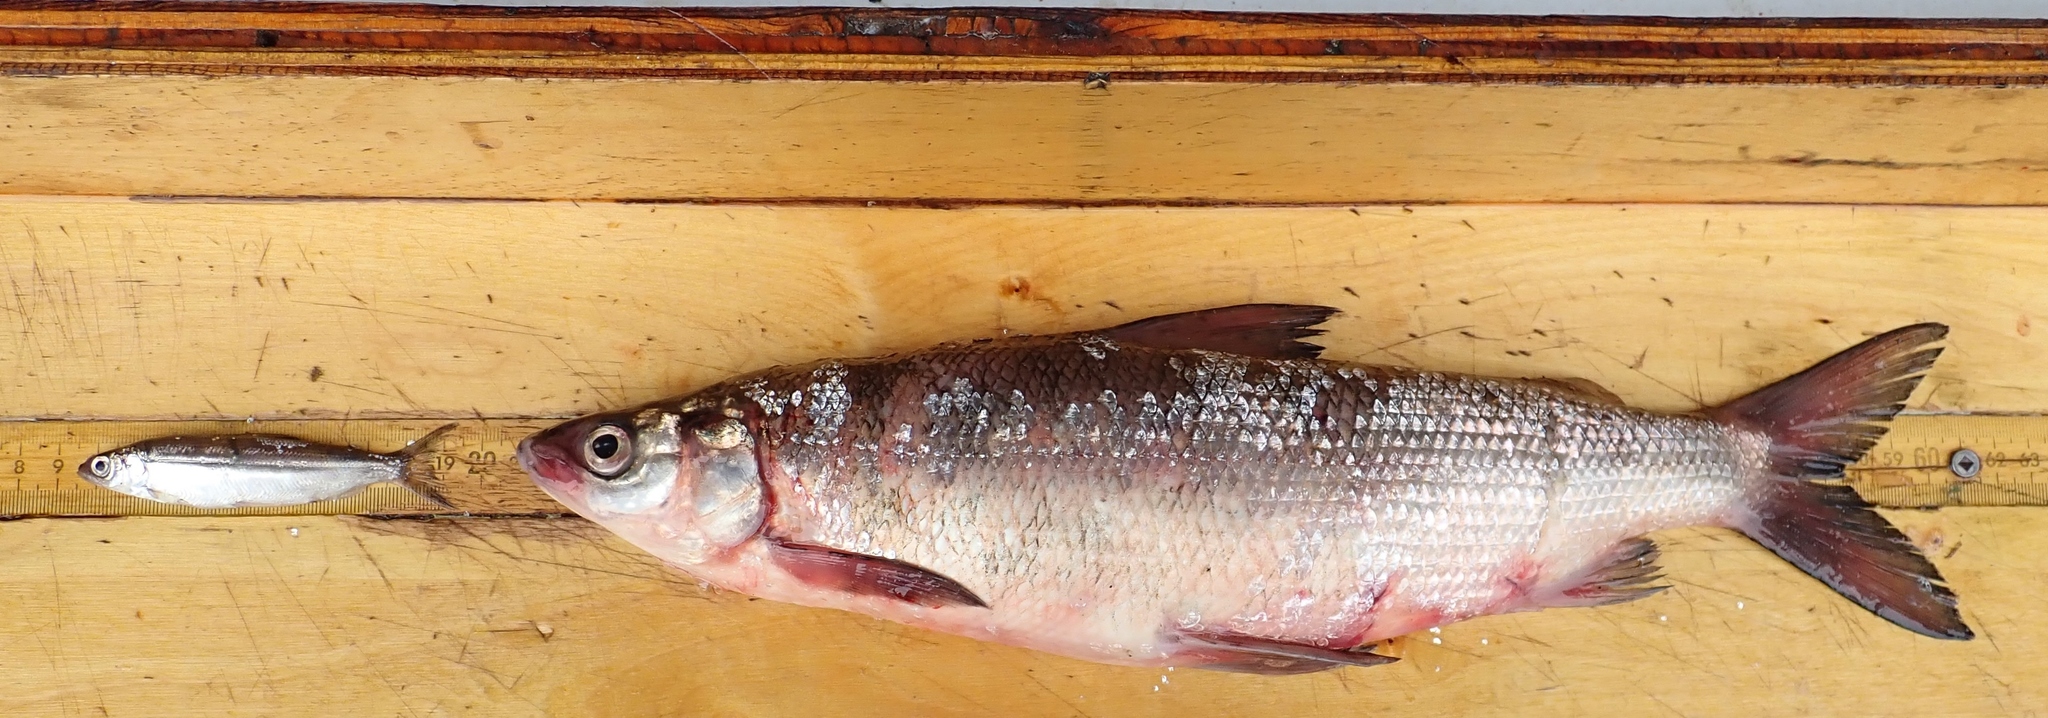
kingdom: Animalia
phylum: Chordata
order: Salmoniformes
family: Salmonidae
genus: Coregonus
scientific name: Coregonus clupeaformis
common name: Lake whitefish
